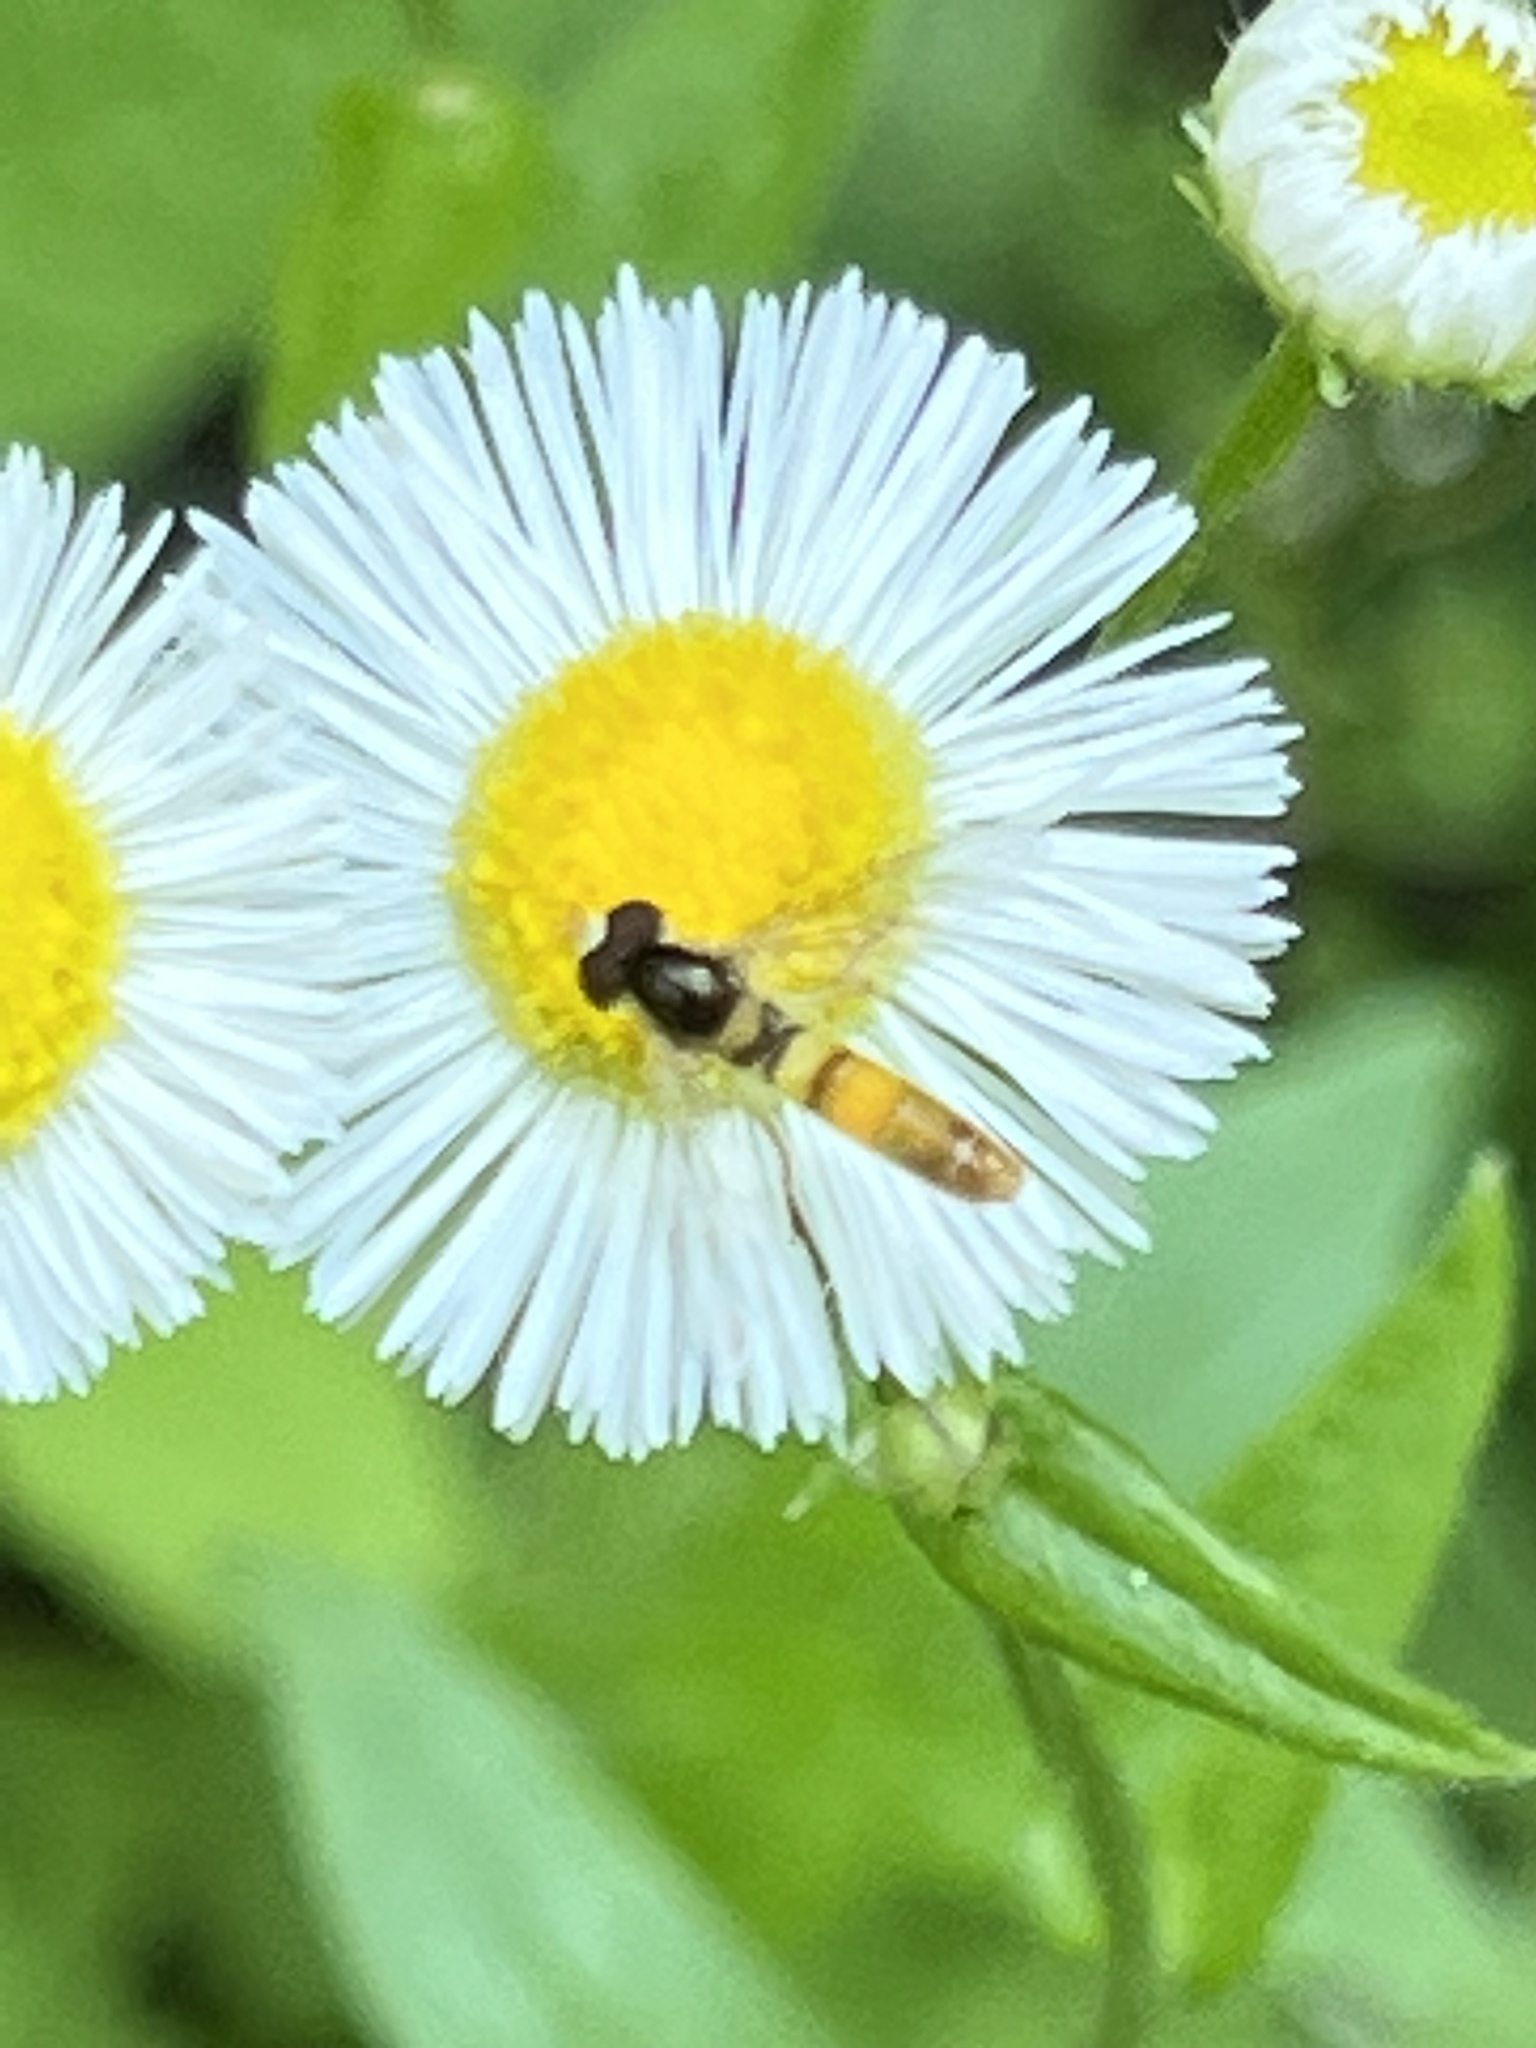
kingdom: Animalia
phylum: Arthropoda
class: Insecta
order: Diptera
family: Syrphidae
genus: Sphaerophoria
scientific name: Sphaerophoria contigua
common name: Tufted globetail
